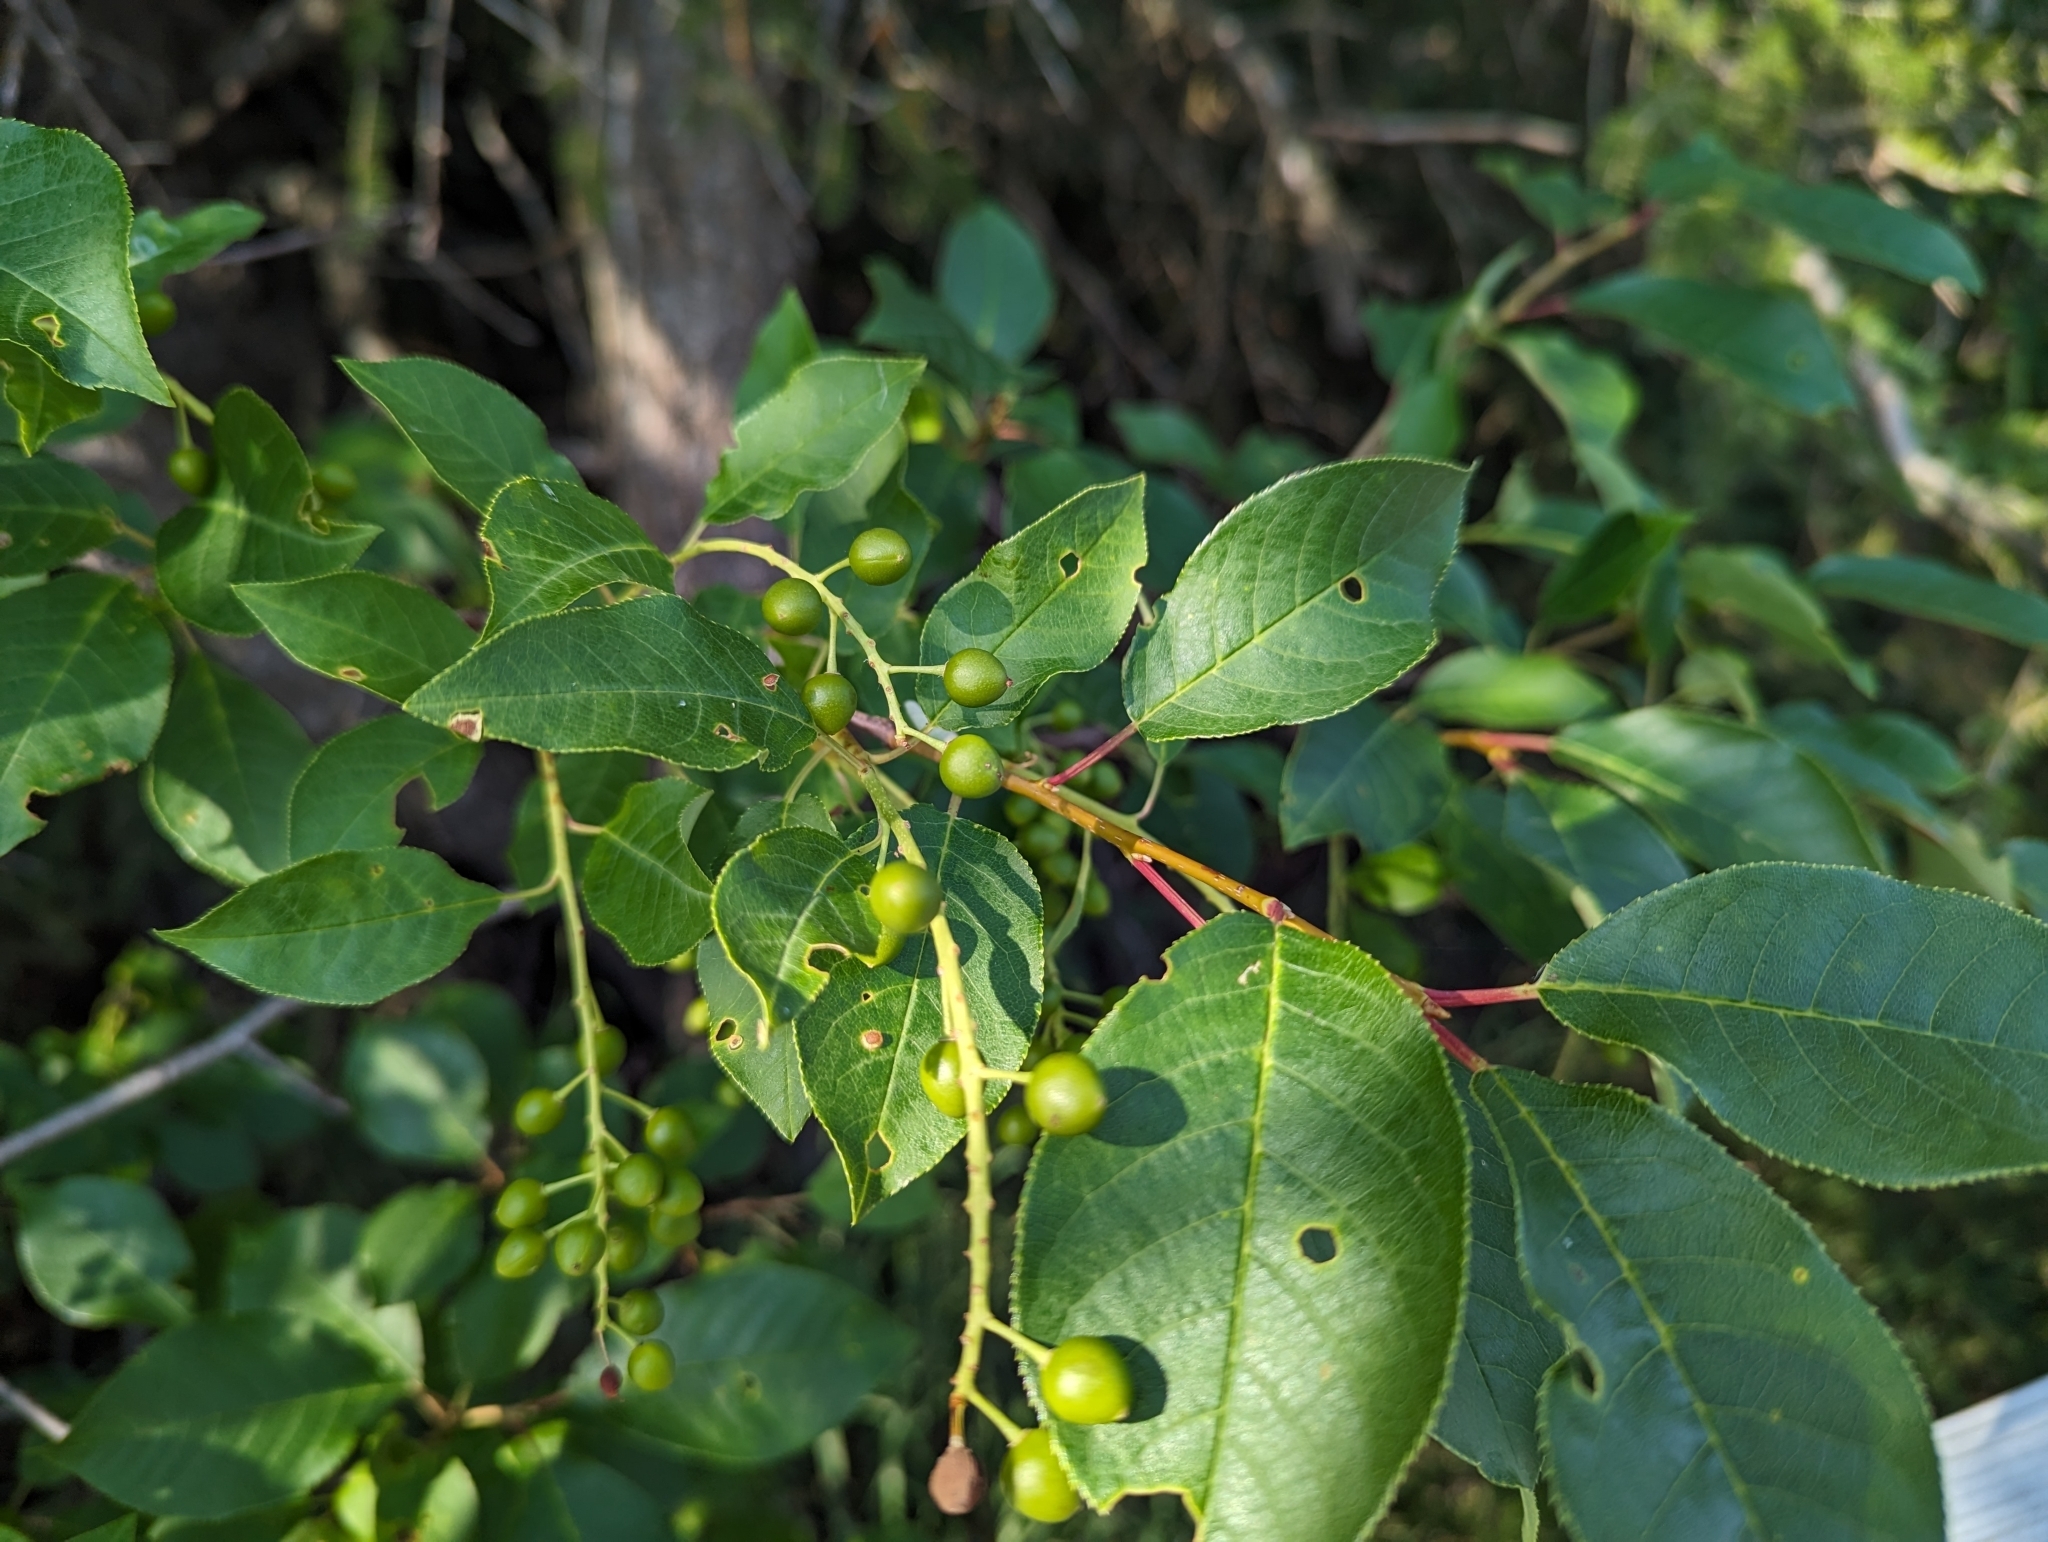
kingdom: Plantae
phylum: Tracheophyta
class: Magnoliopsida
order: Rosales
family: Rosaceae
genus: Prunus
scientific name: Prunus virginiana
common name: Chokecherry
